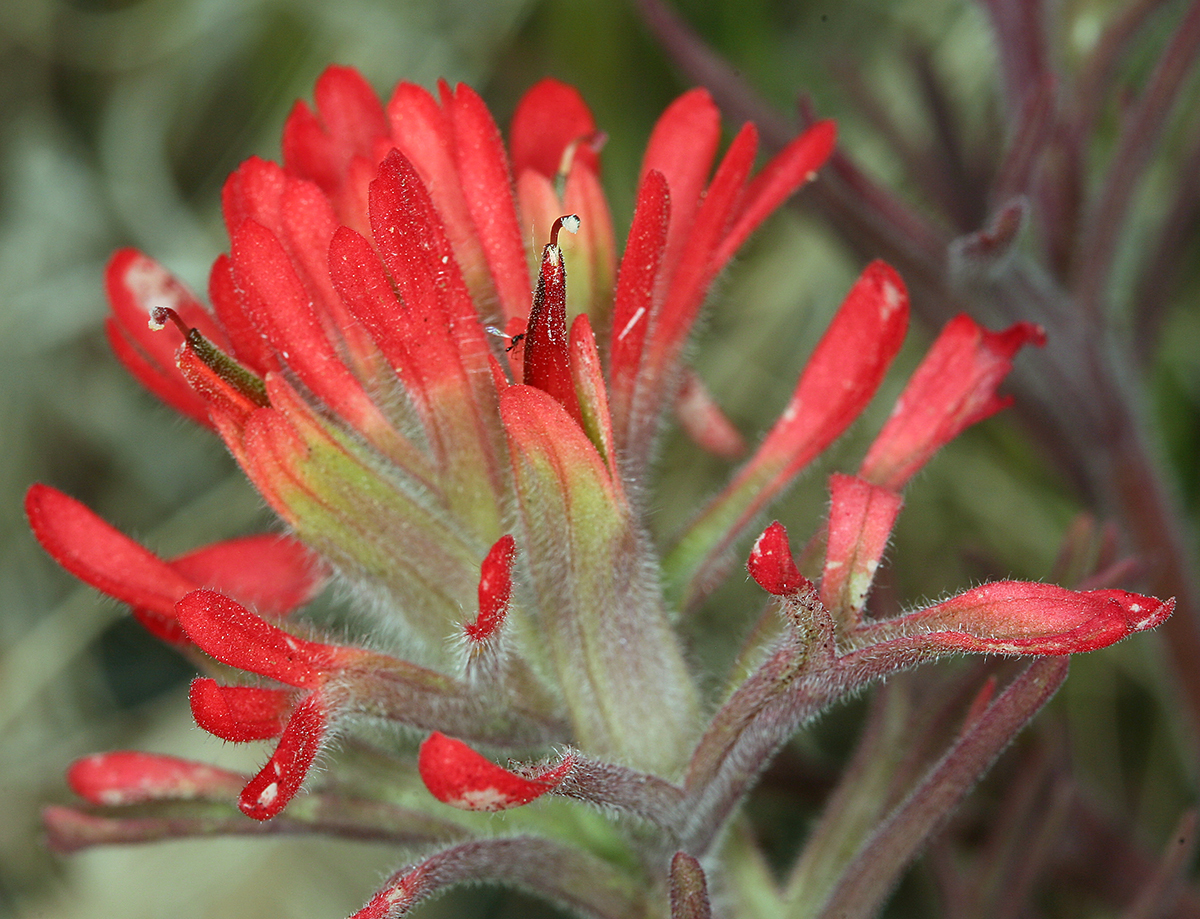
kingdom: Plantae
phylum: Tracheophyta
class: Magnoliopsida
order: Lamiales
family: Orobanchaceae
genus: Castilleja
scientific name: Castilleja chromosa
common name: Desert paintbrush
